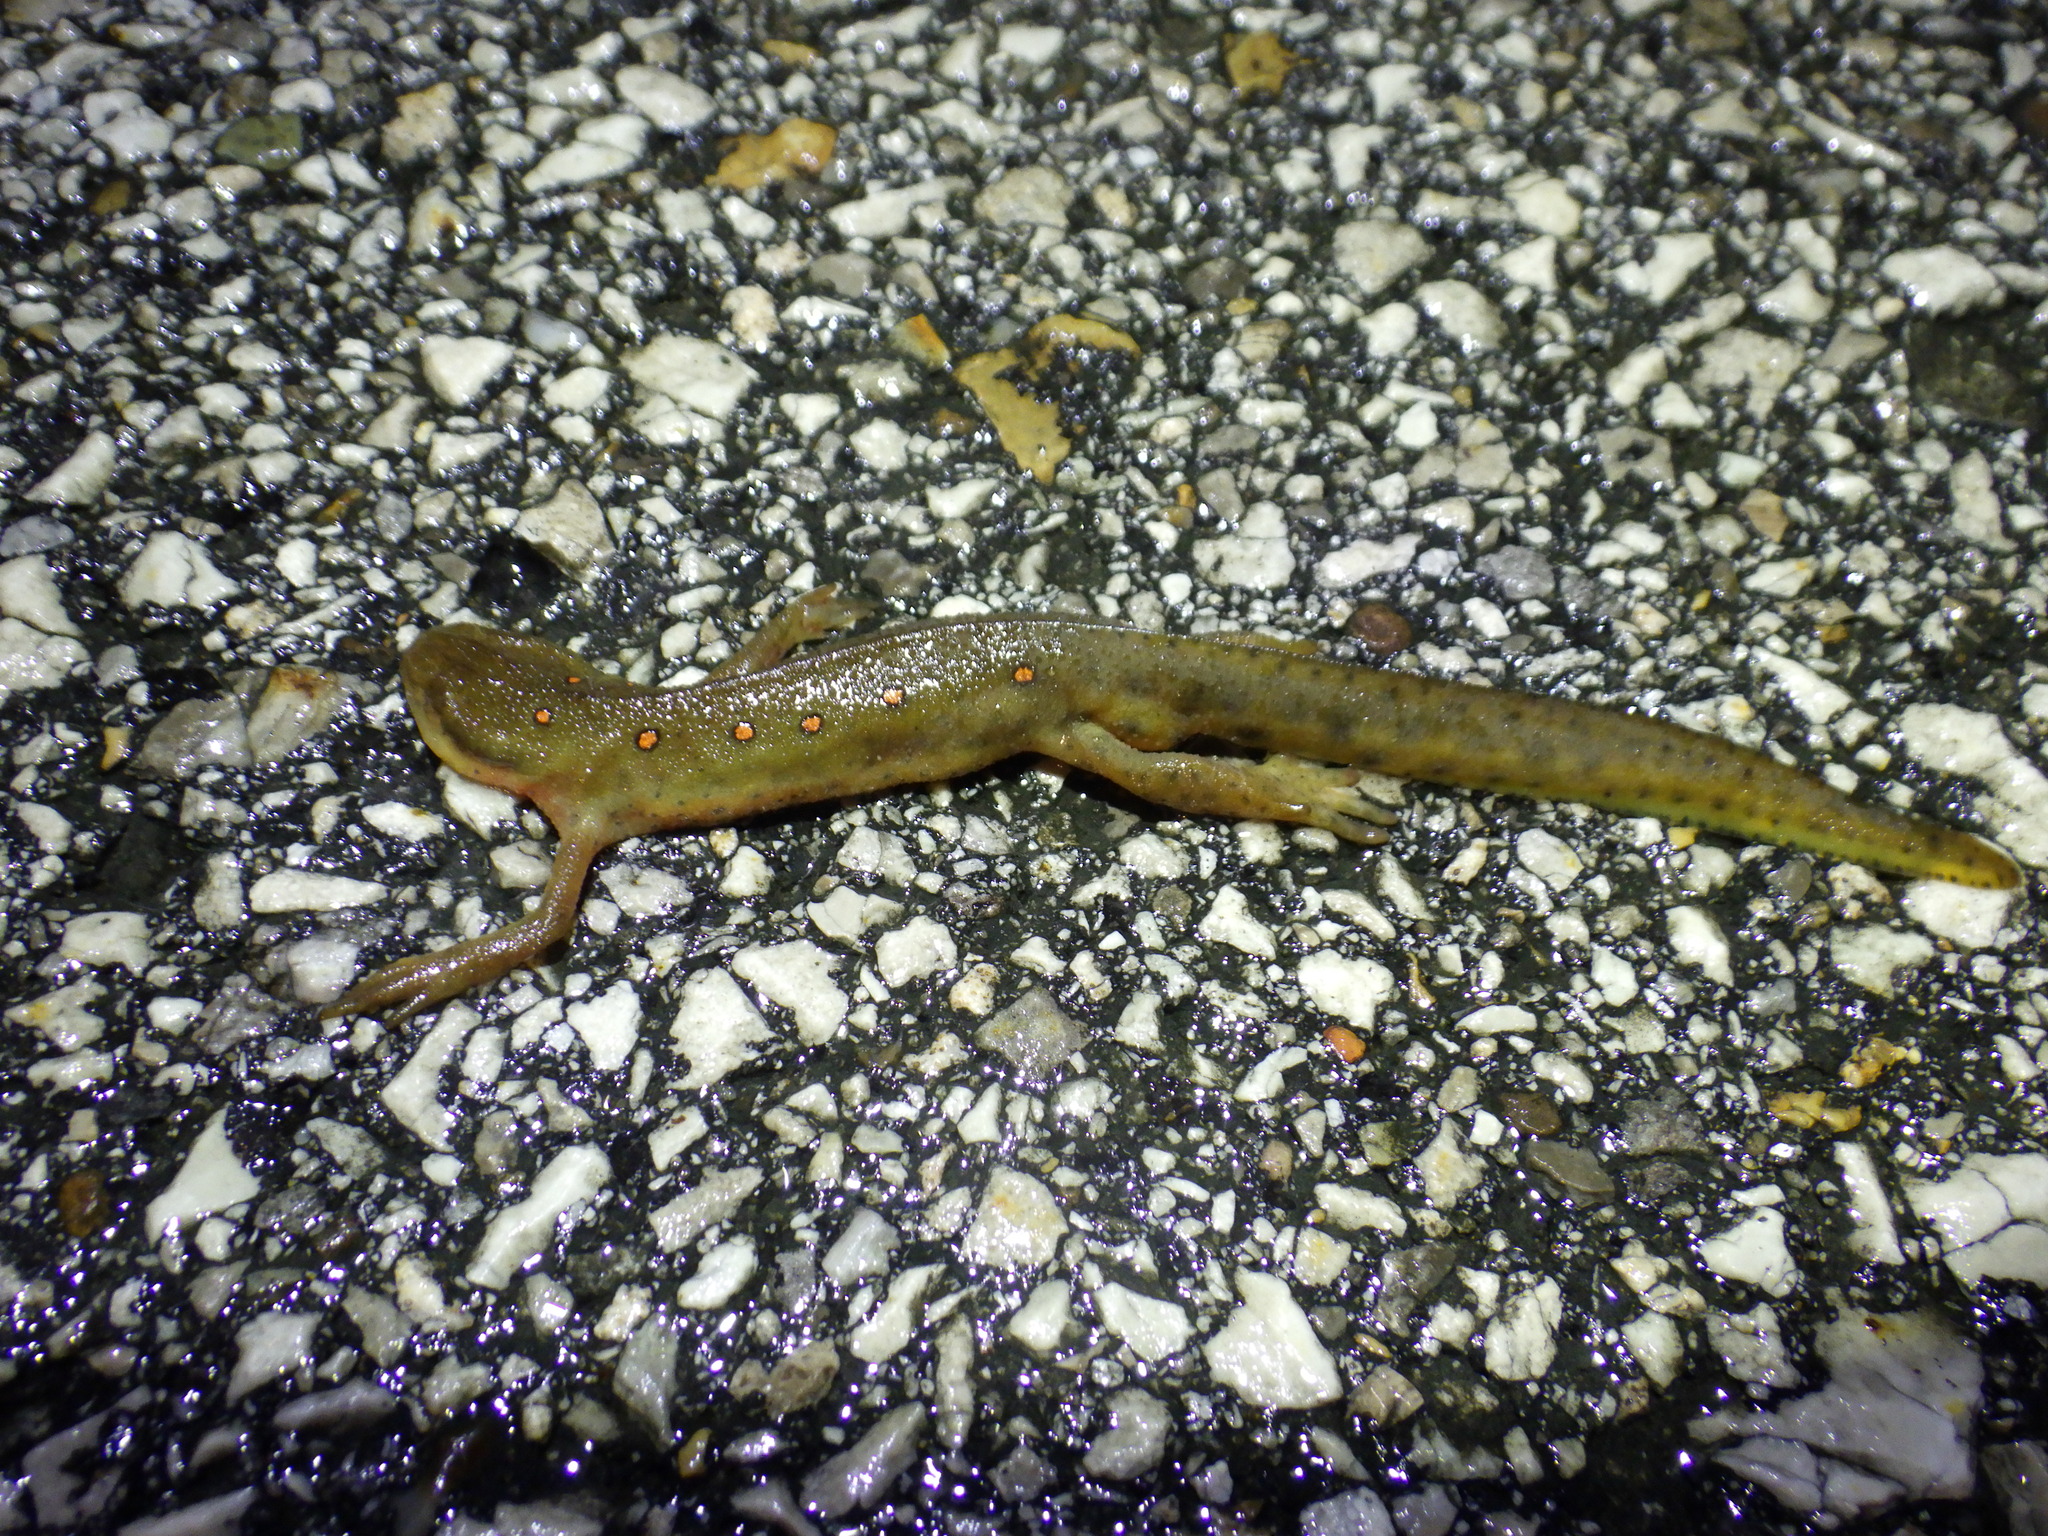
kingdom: Animalia
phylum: Chordata
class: Amphibia
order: Caudata
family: Salamandridae
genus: Notophthalmus
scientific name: Notophthalmus viridescens
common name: Eastern newt
